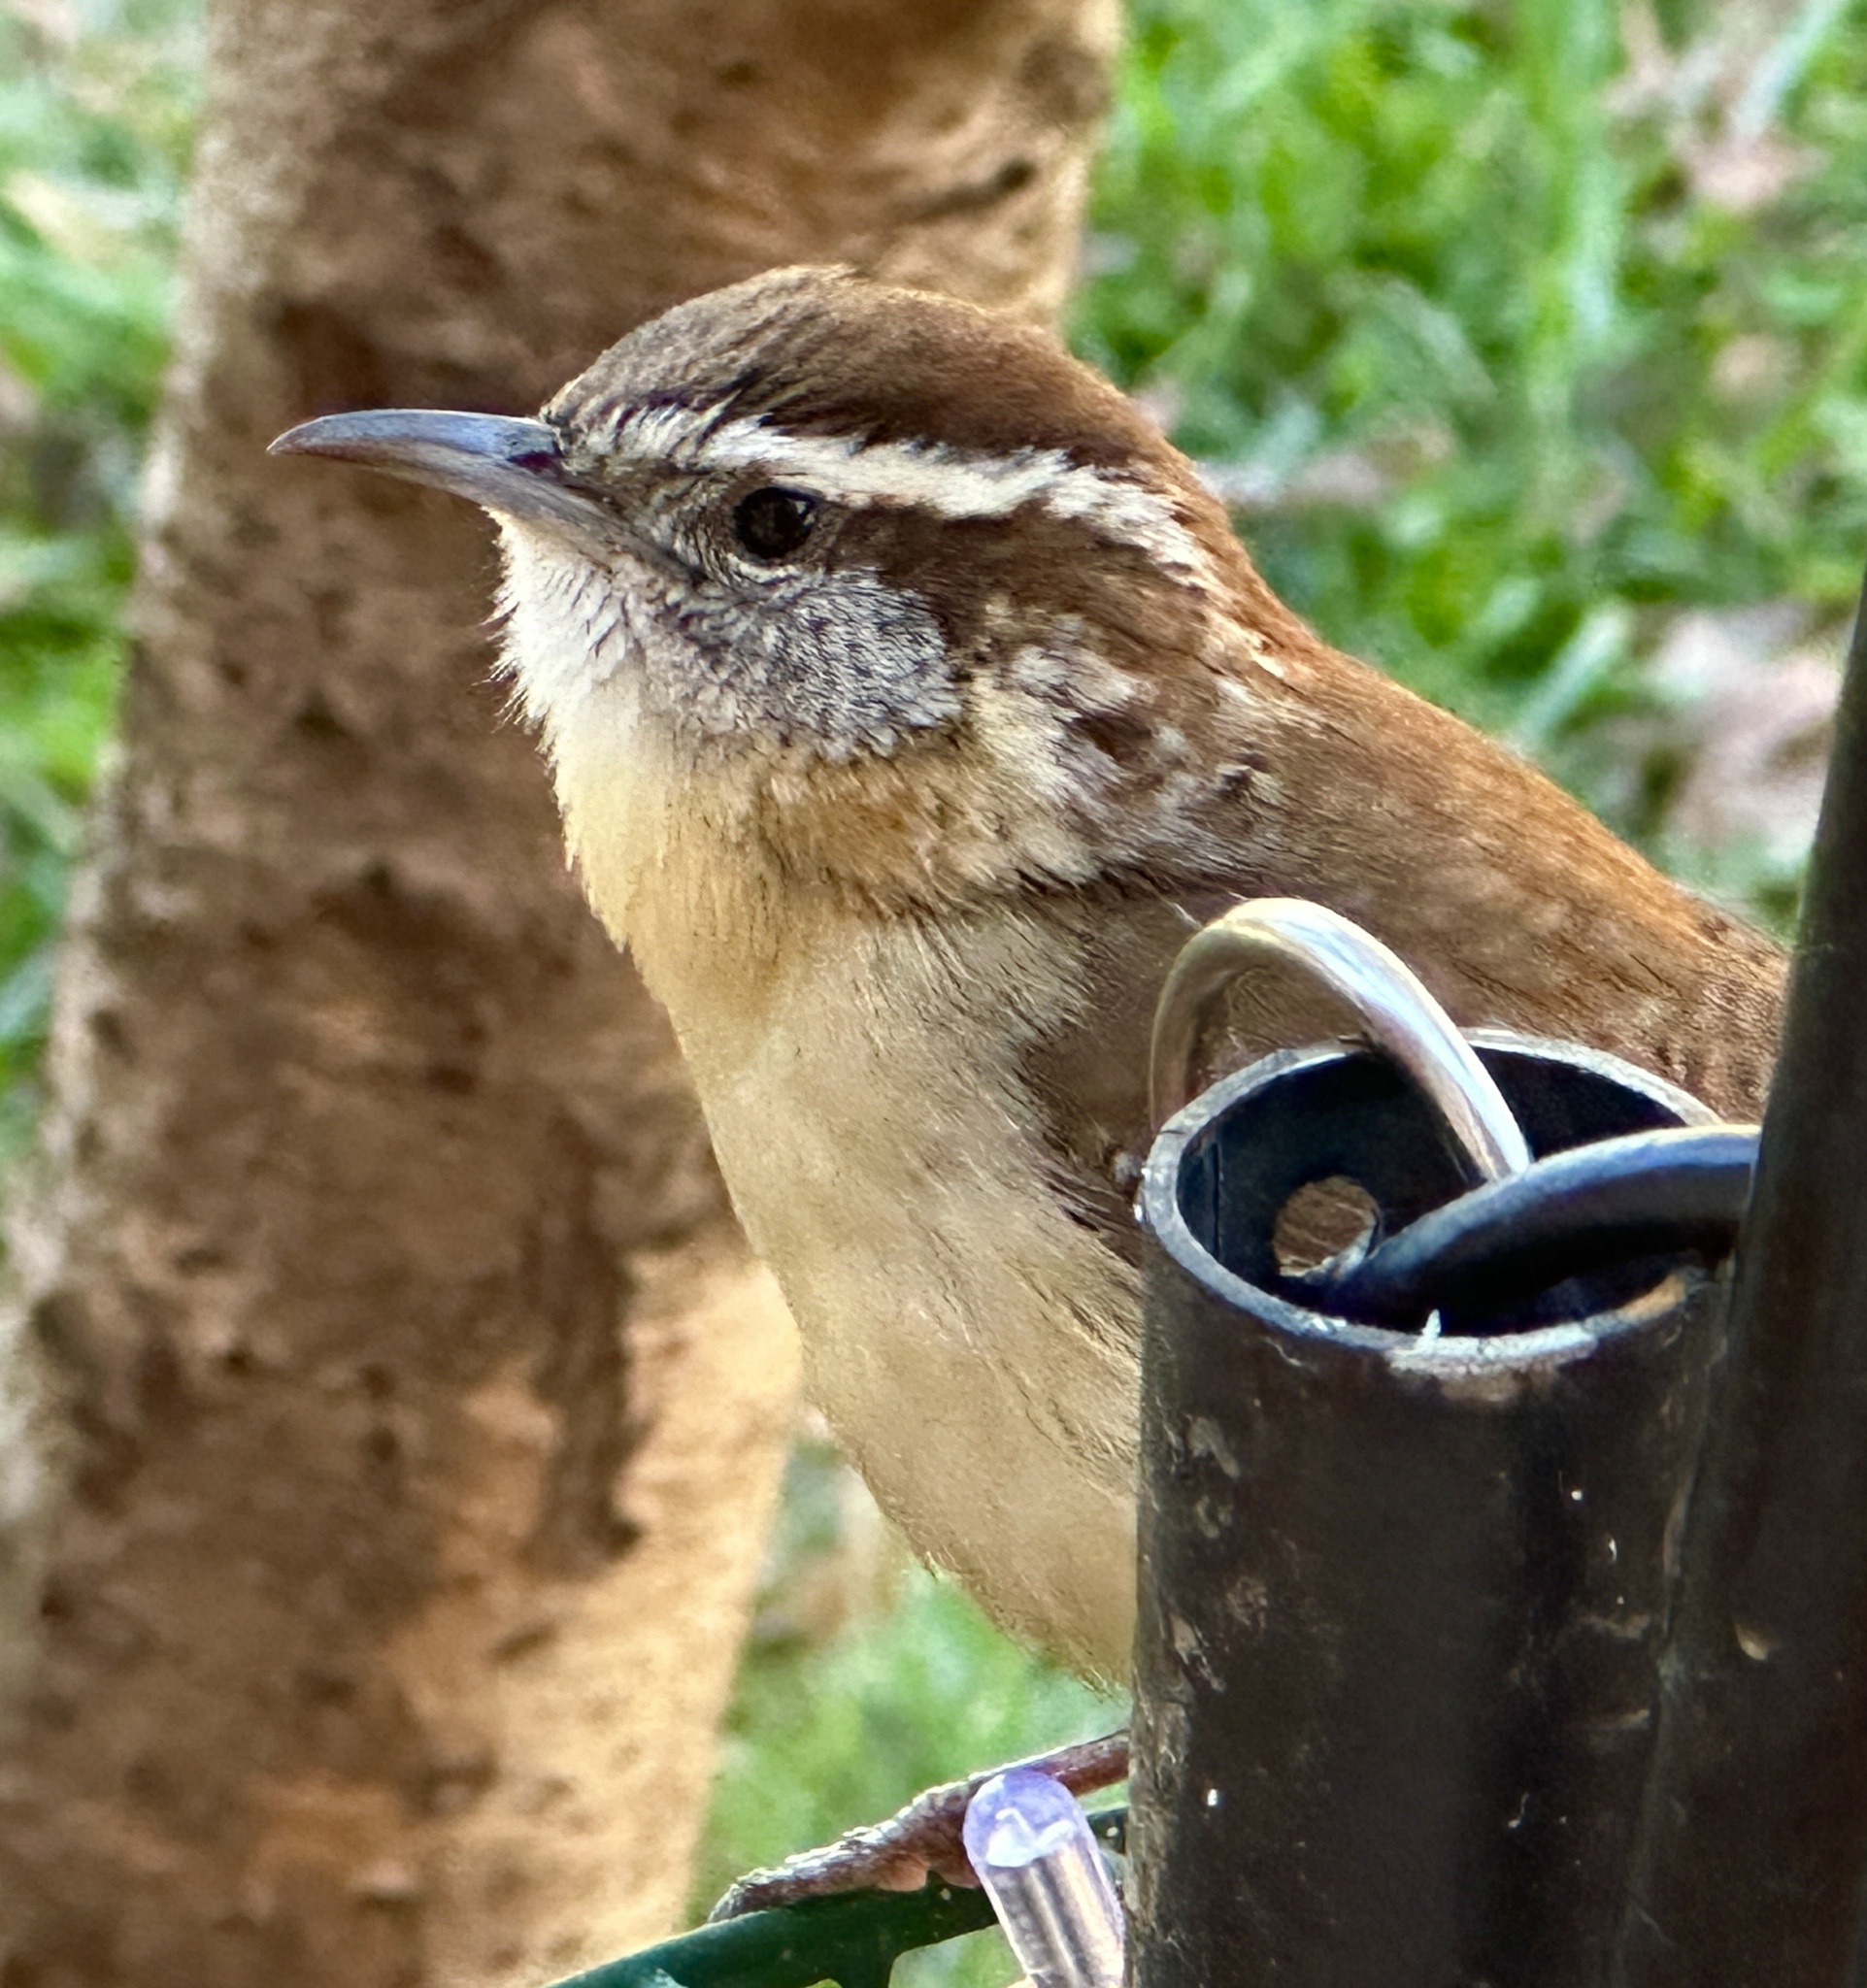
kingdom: Animalia
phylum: Chordata
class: Aves
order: Passeriformes
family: Troglodytidae
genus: Thryothorus
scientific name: Thryothorus ludovicianus
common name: Carolina wren
